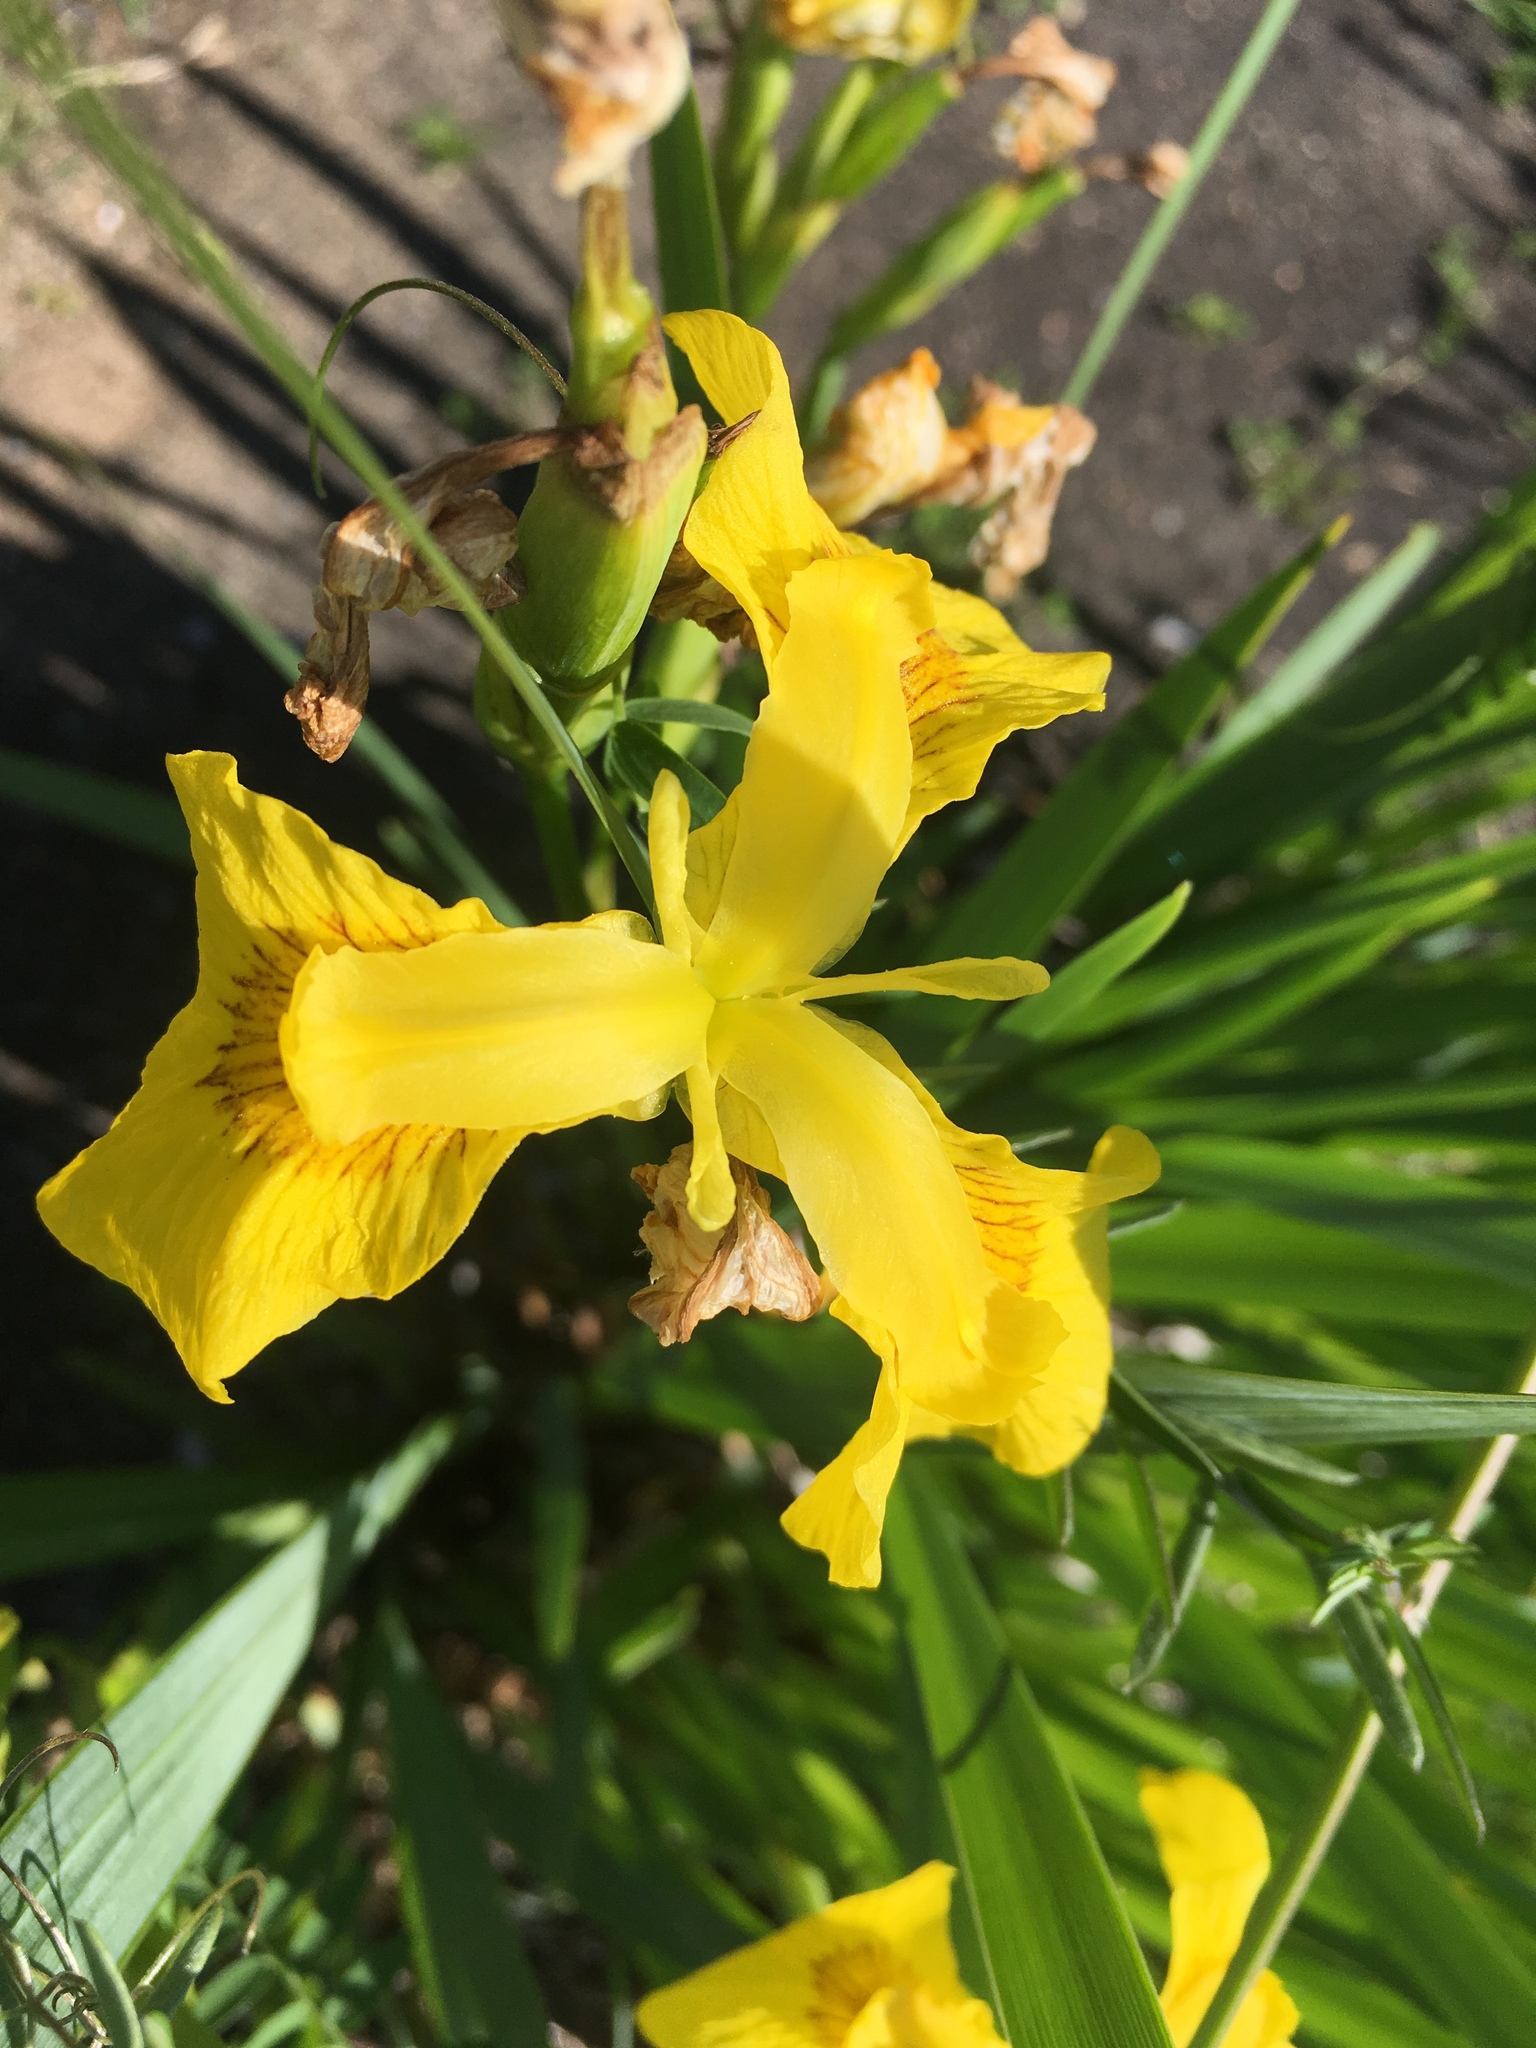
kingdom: Plantae
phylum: Tracheophyta
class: Liliopsida
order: Asparagales
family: Iridaceae
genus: Iris
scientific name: Iris pseudacorus
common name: Yellow flag
